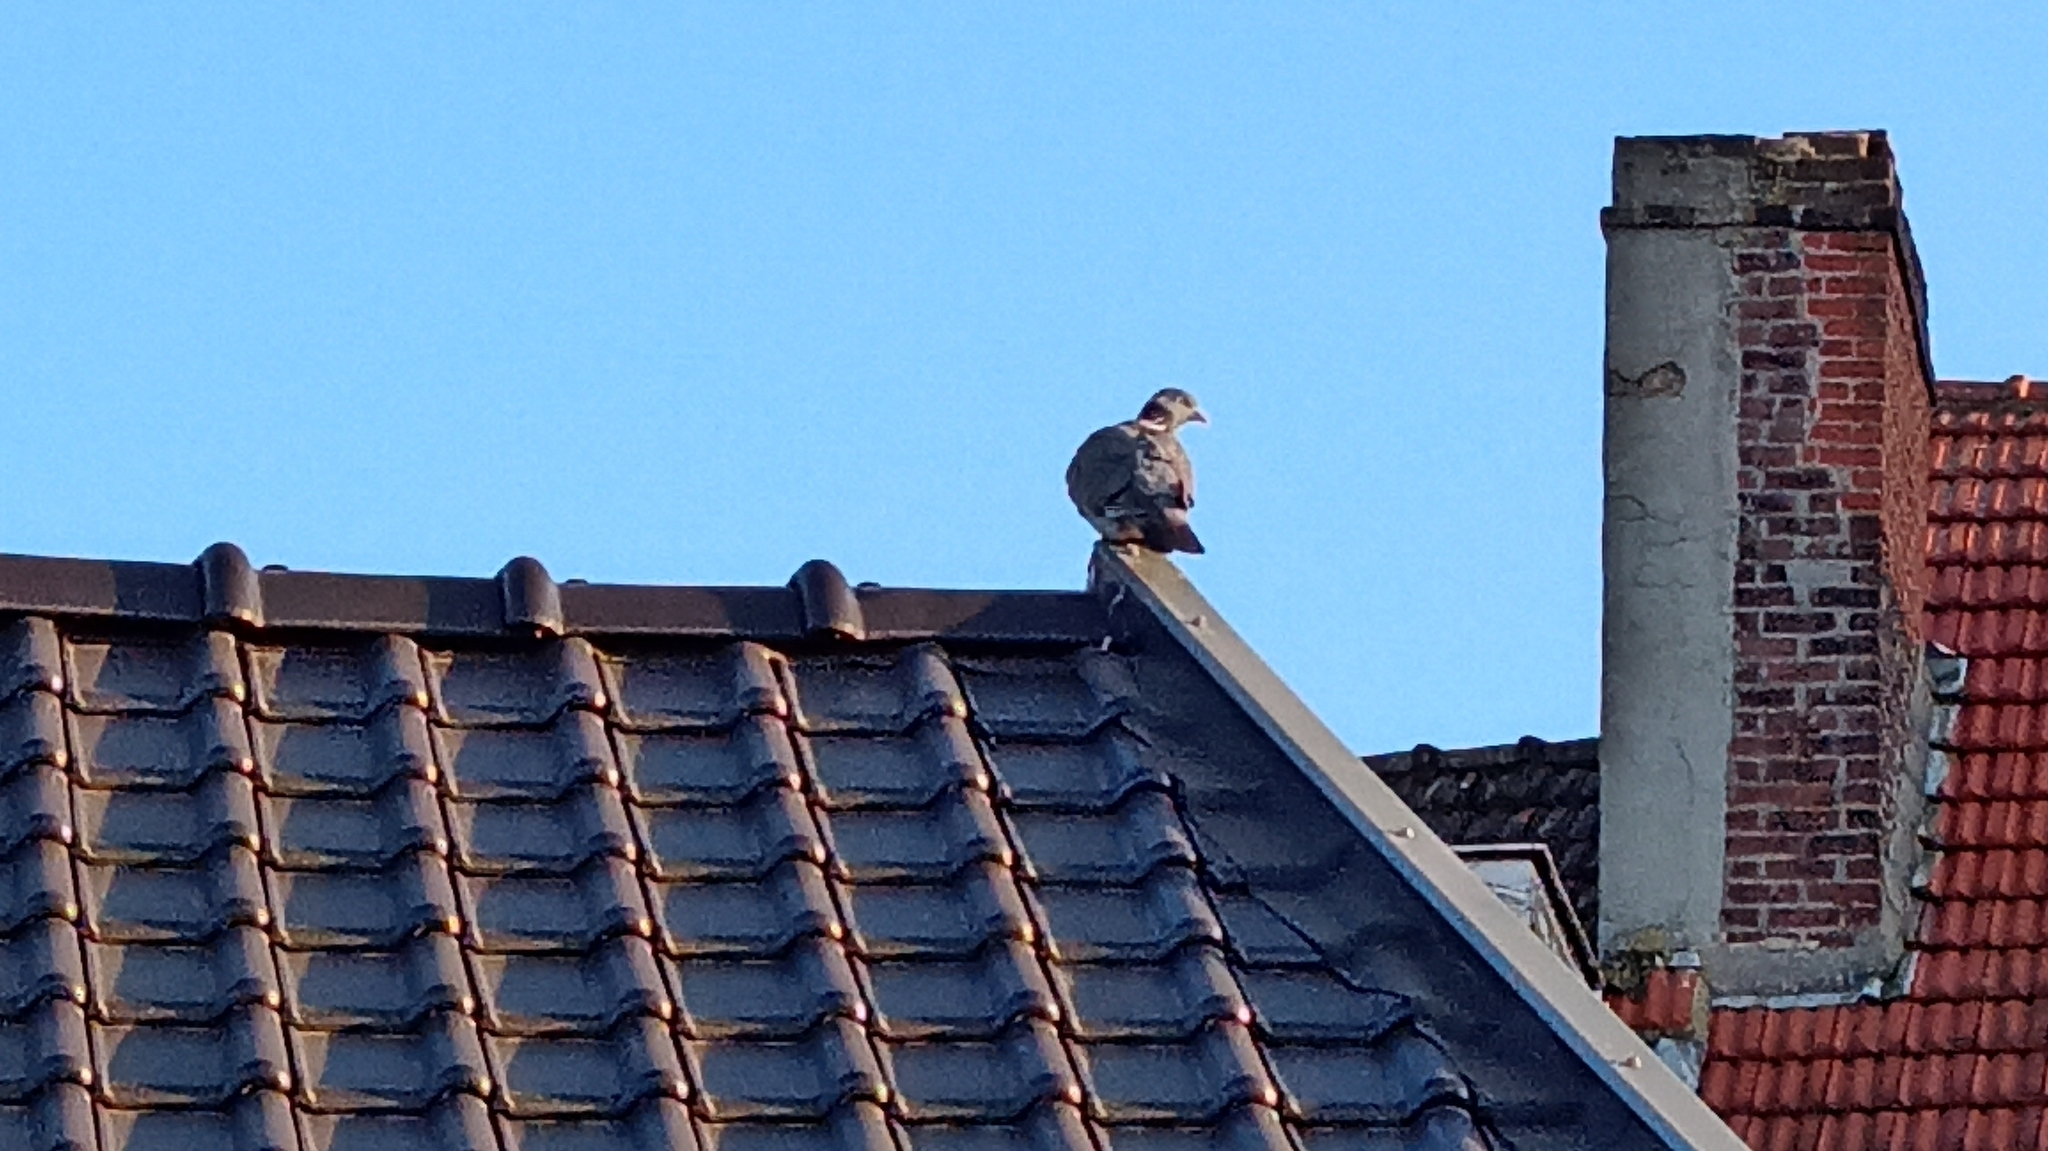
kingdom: Animalia
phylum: Chordata
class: Aves
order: Columbiformes
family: Columbidae
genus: Columba
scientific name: Columba palumbus
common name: Common wood pigeon
